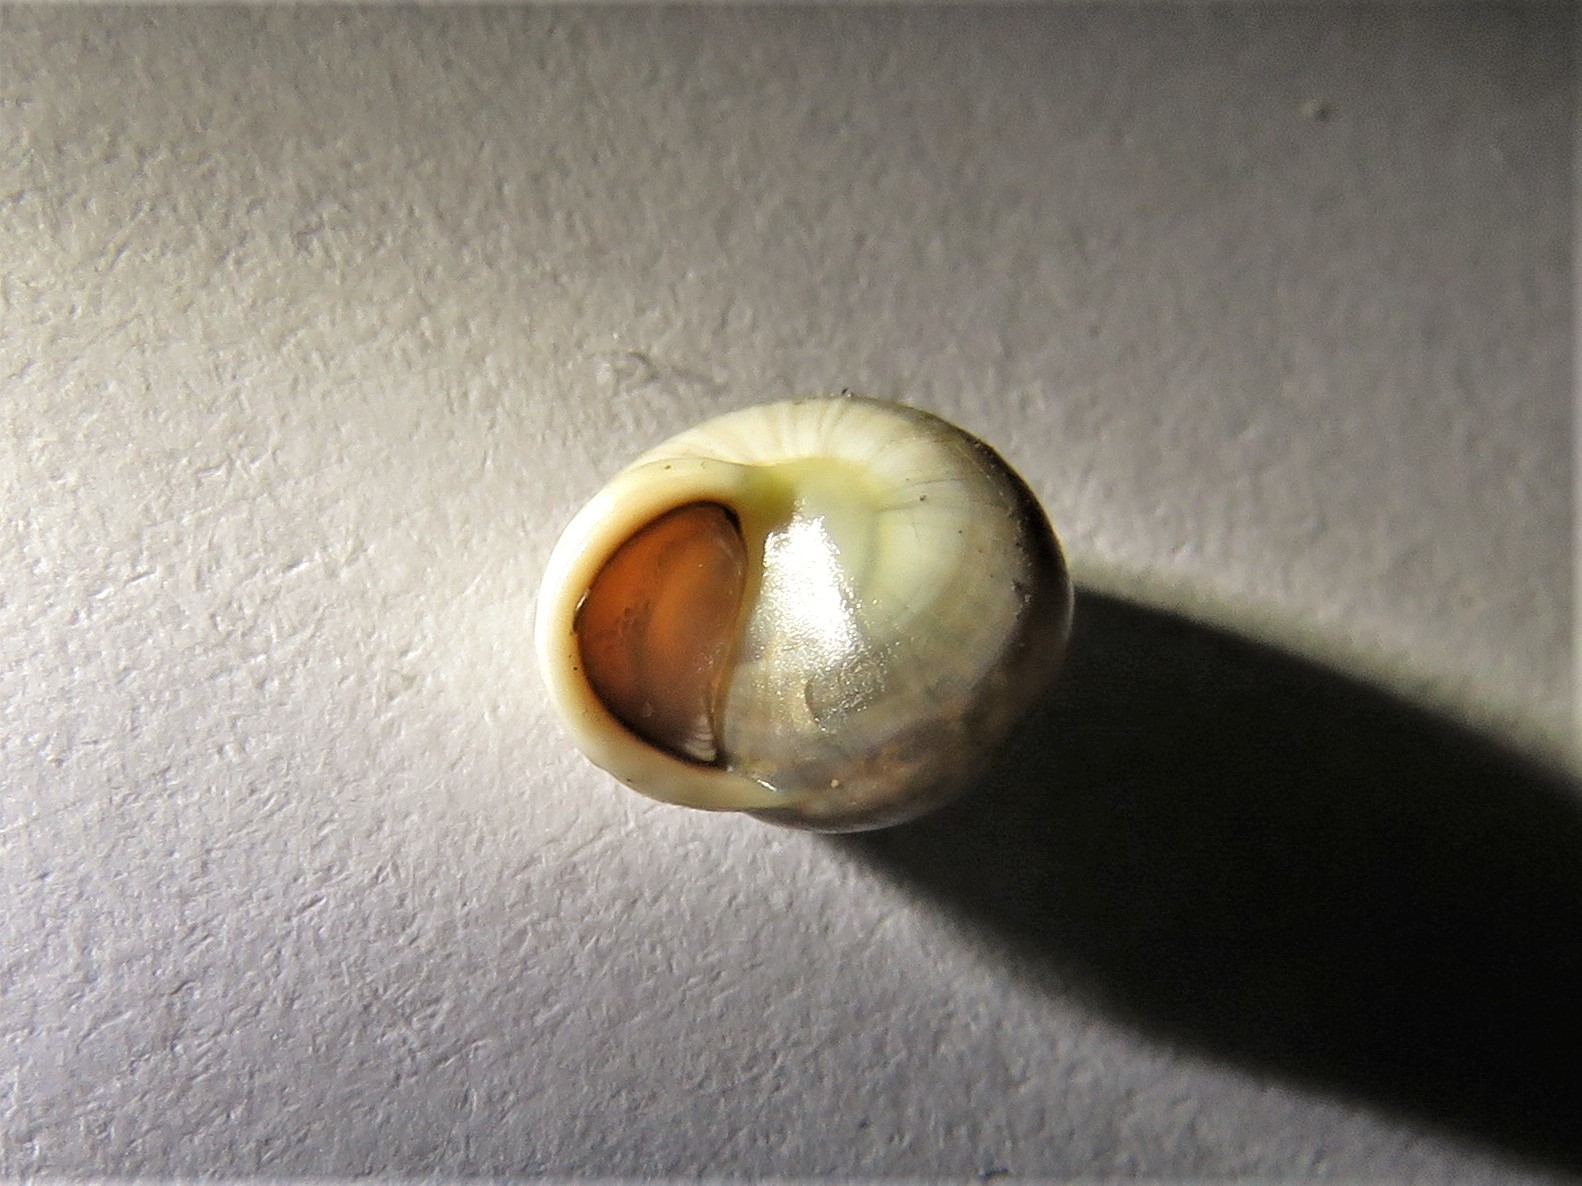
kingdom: Animalia
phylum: Mollusca
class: Gastropoda
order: Cycloneritida
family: Helicinidae
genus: Helicina
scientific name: Helicina orbiculata
